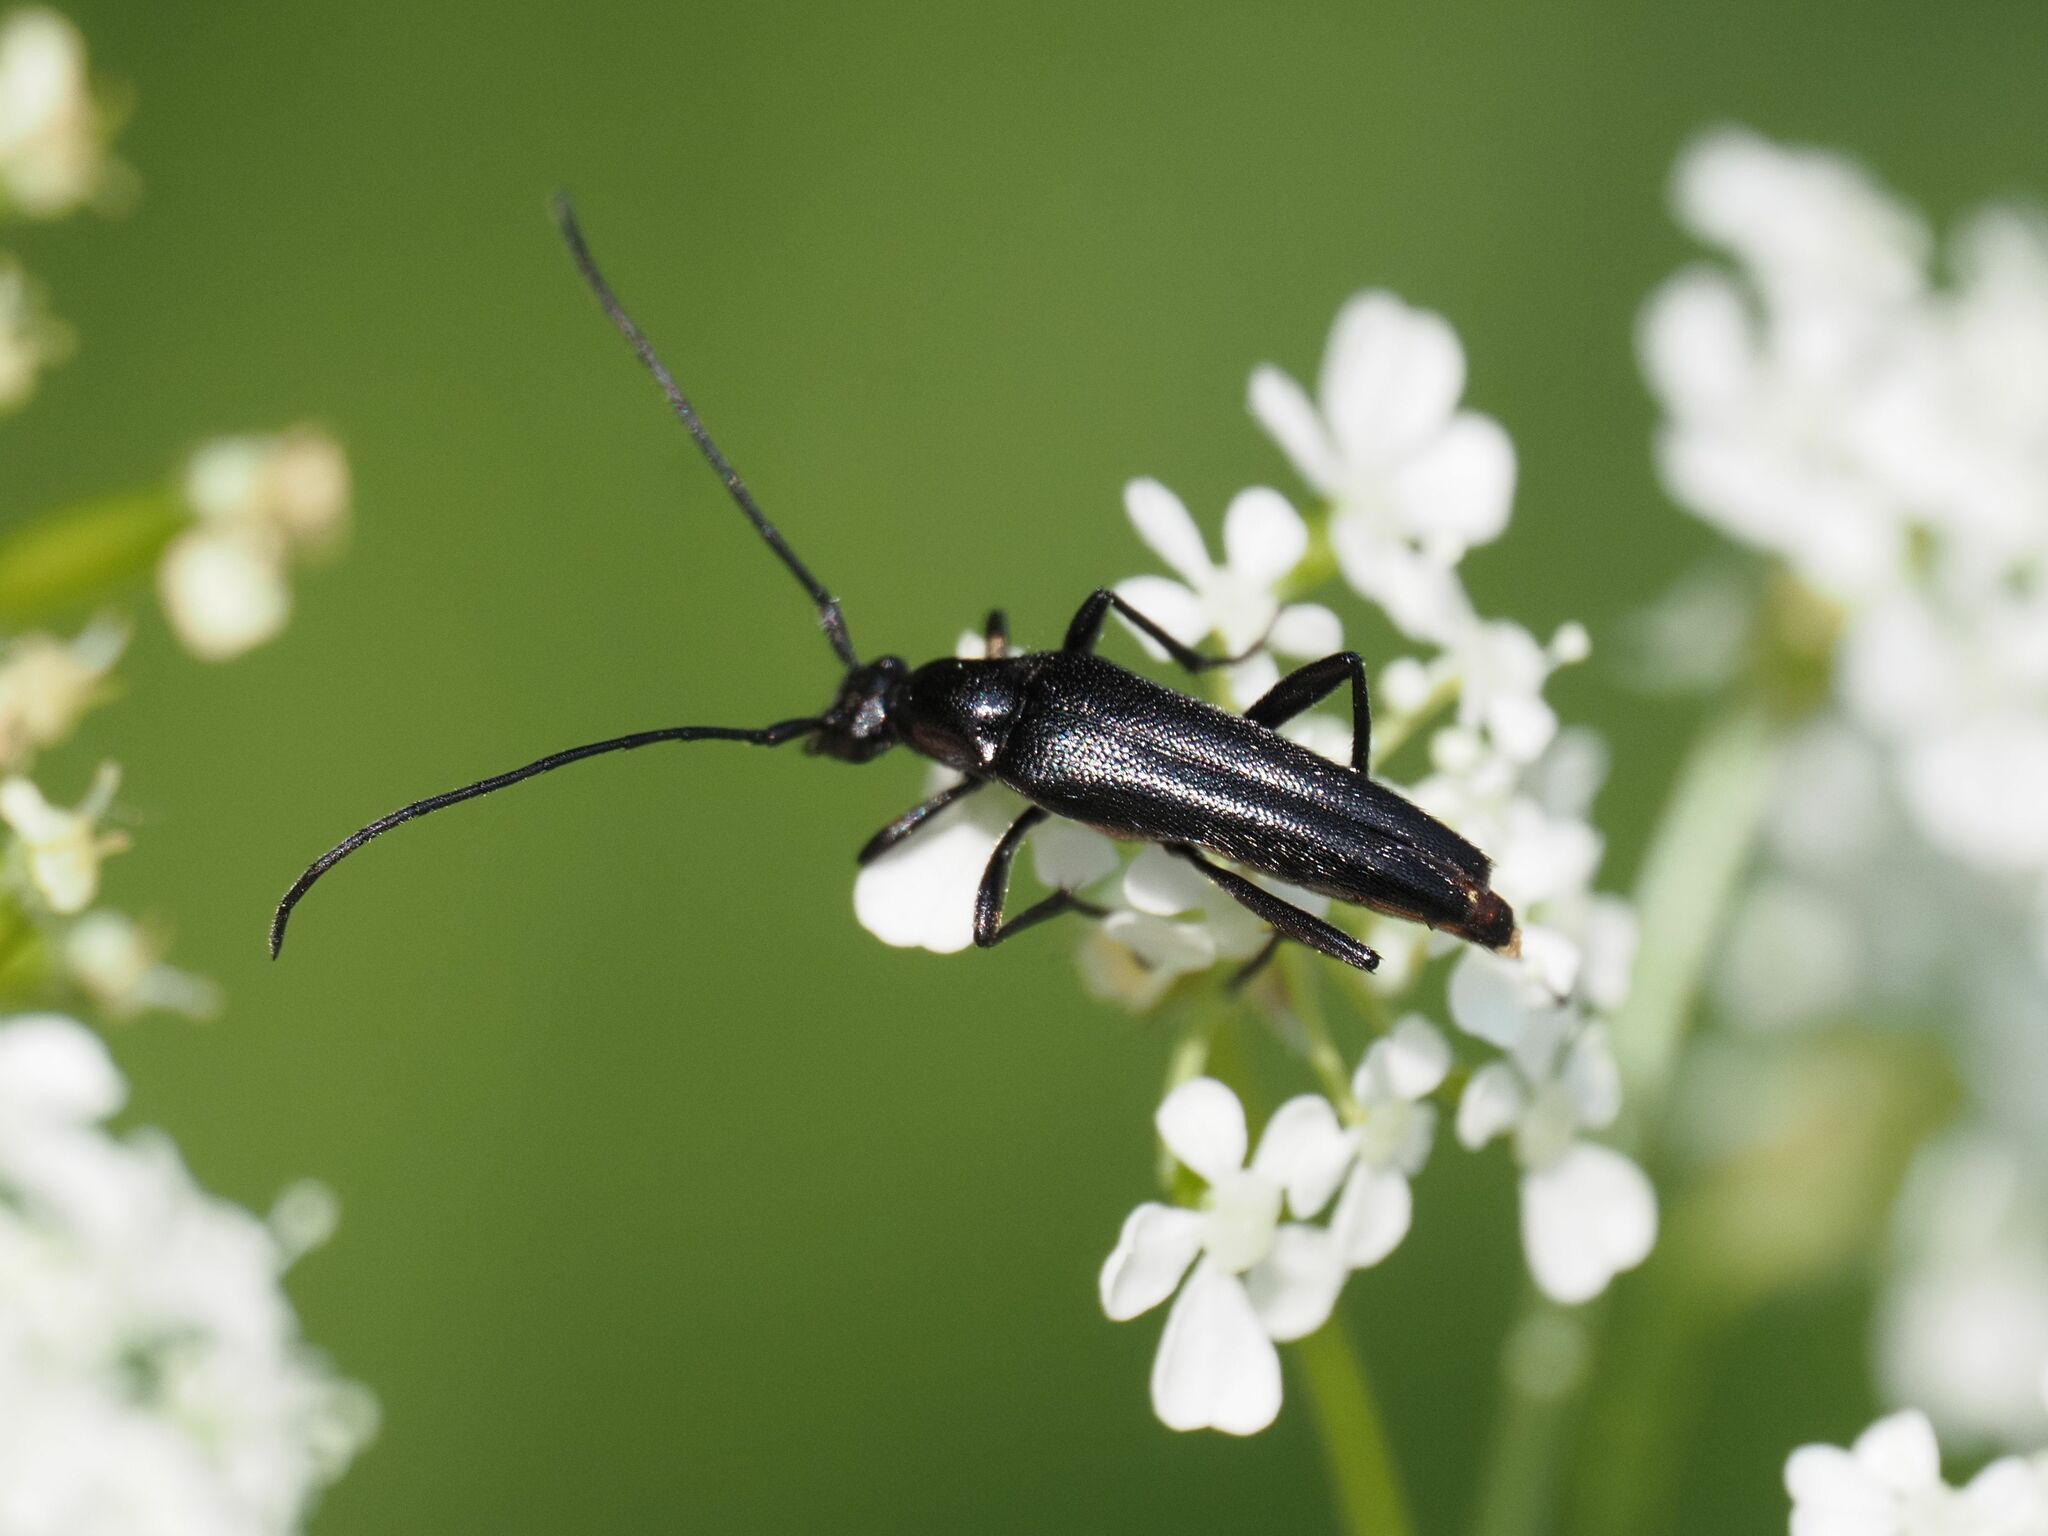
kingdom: Animalia
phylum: Arthropoda
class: Insecta
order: Coleoptera
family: Cerambycidae
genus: Stenurella
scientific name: Stenurella nigra
